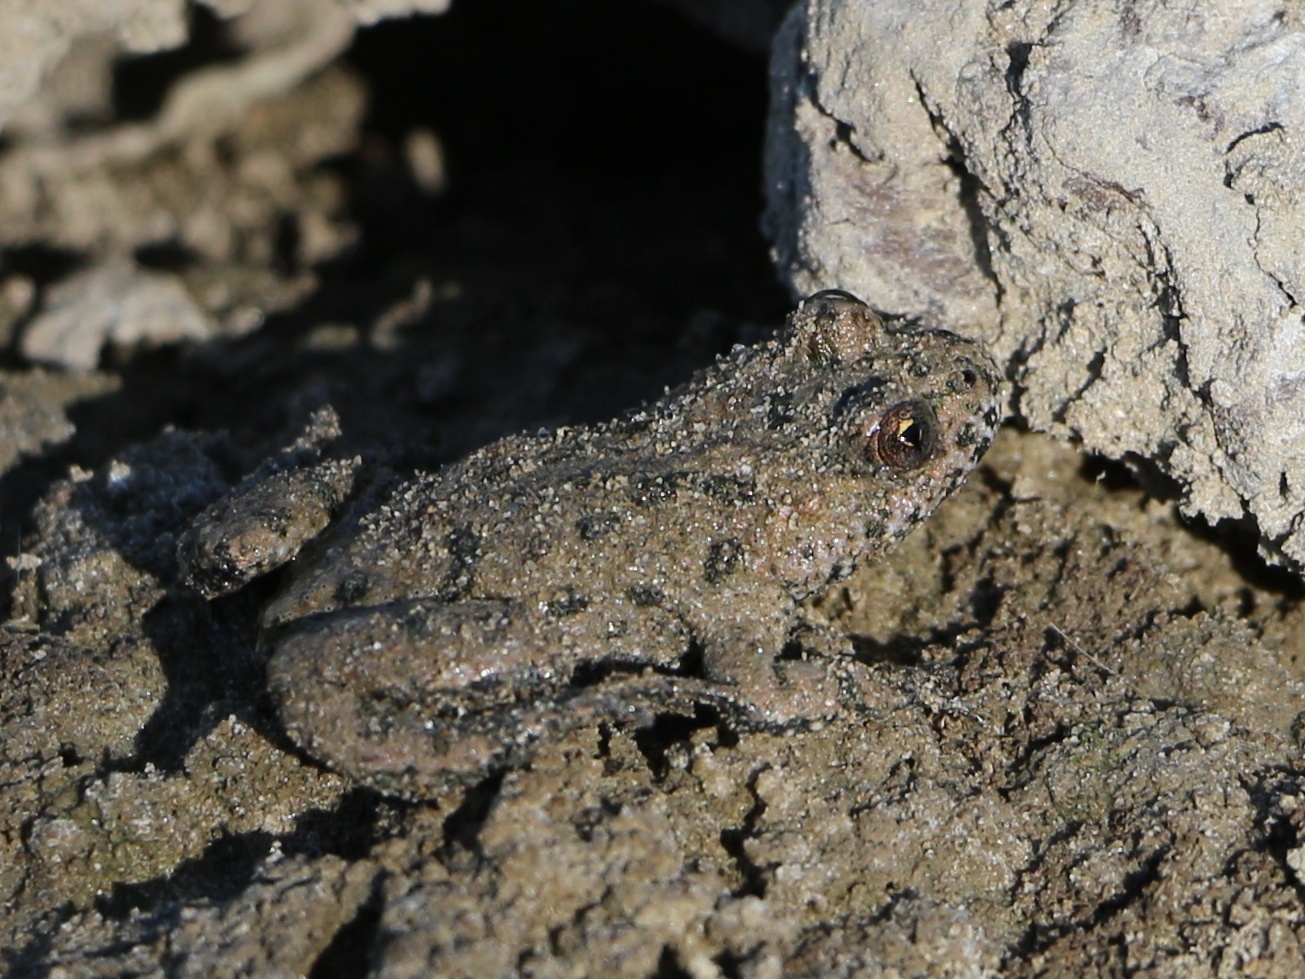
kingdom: Animalia
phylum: Chordata
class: Amphibia
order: Anura
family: Bombinatoridae
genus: Bombina
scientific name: Bombina bombina
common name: Fire-bellied toad
